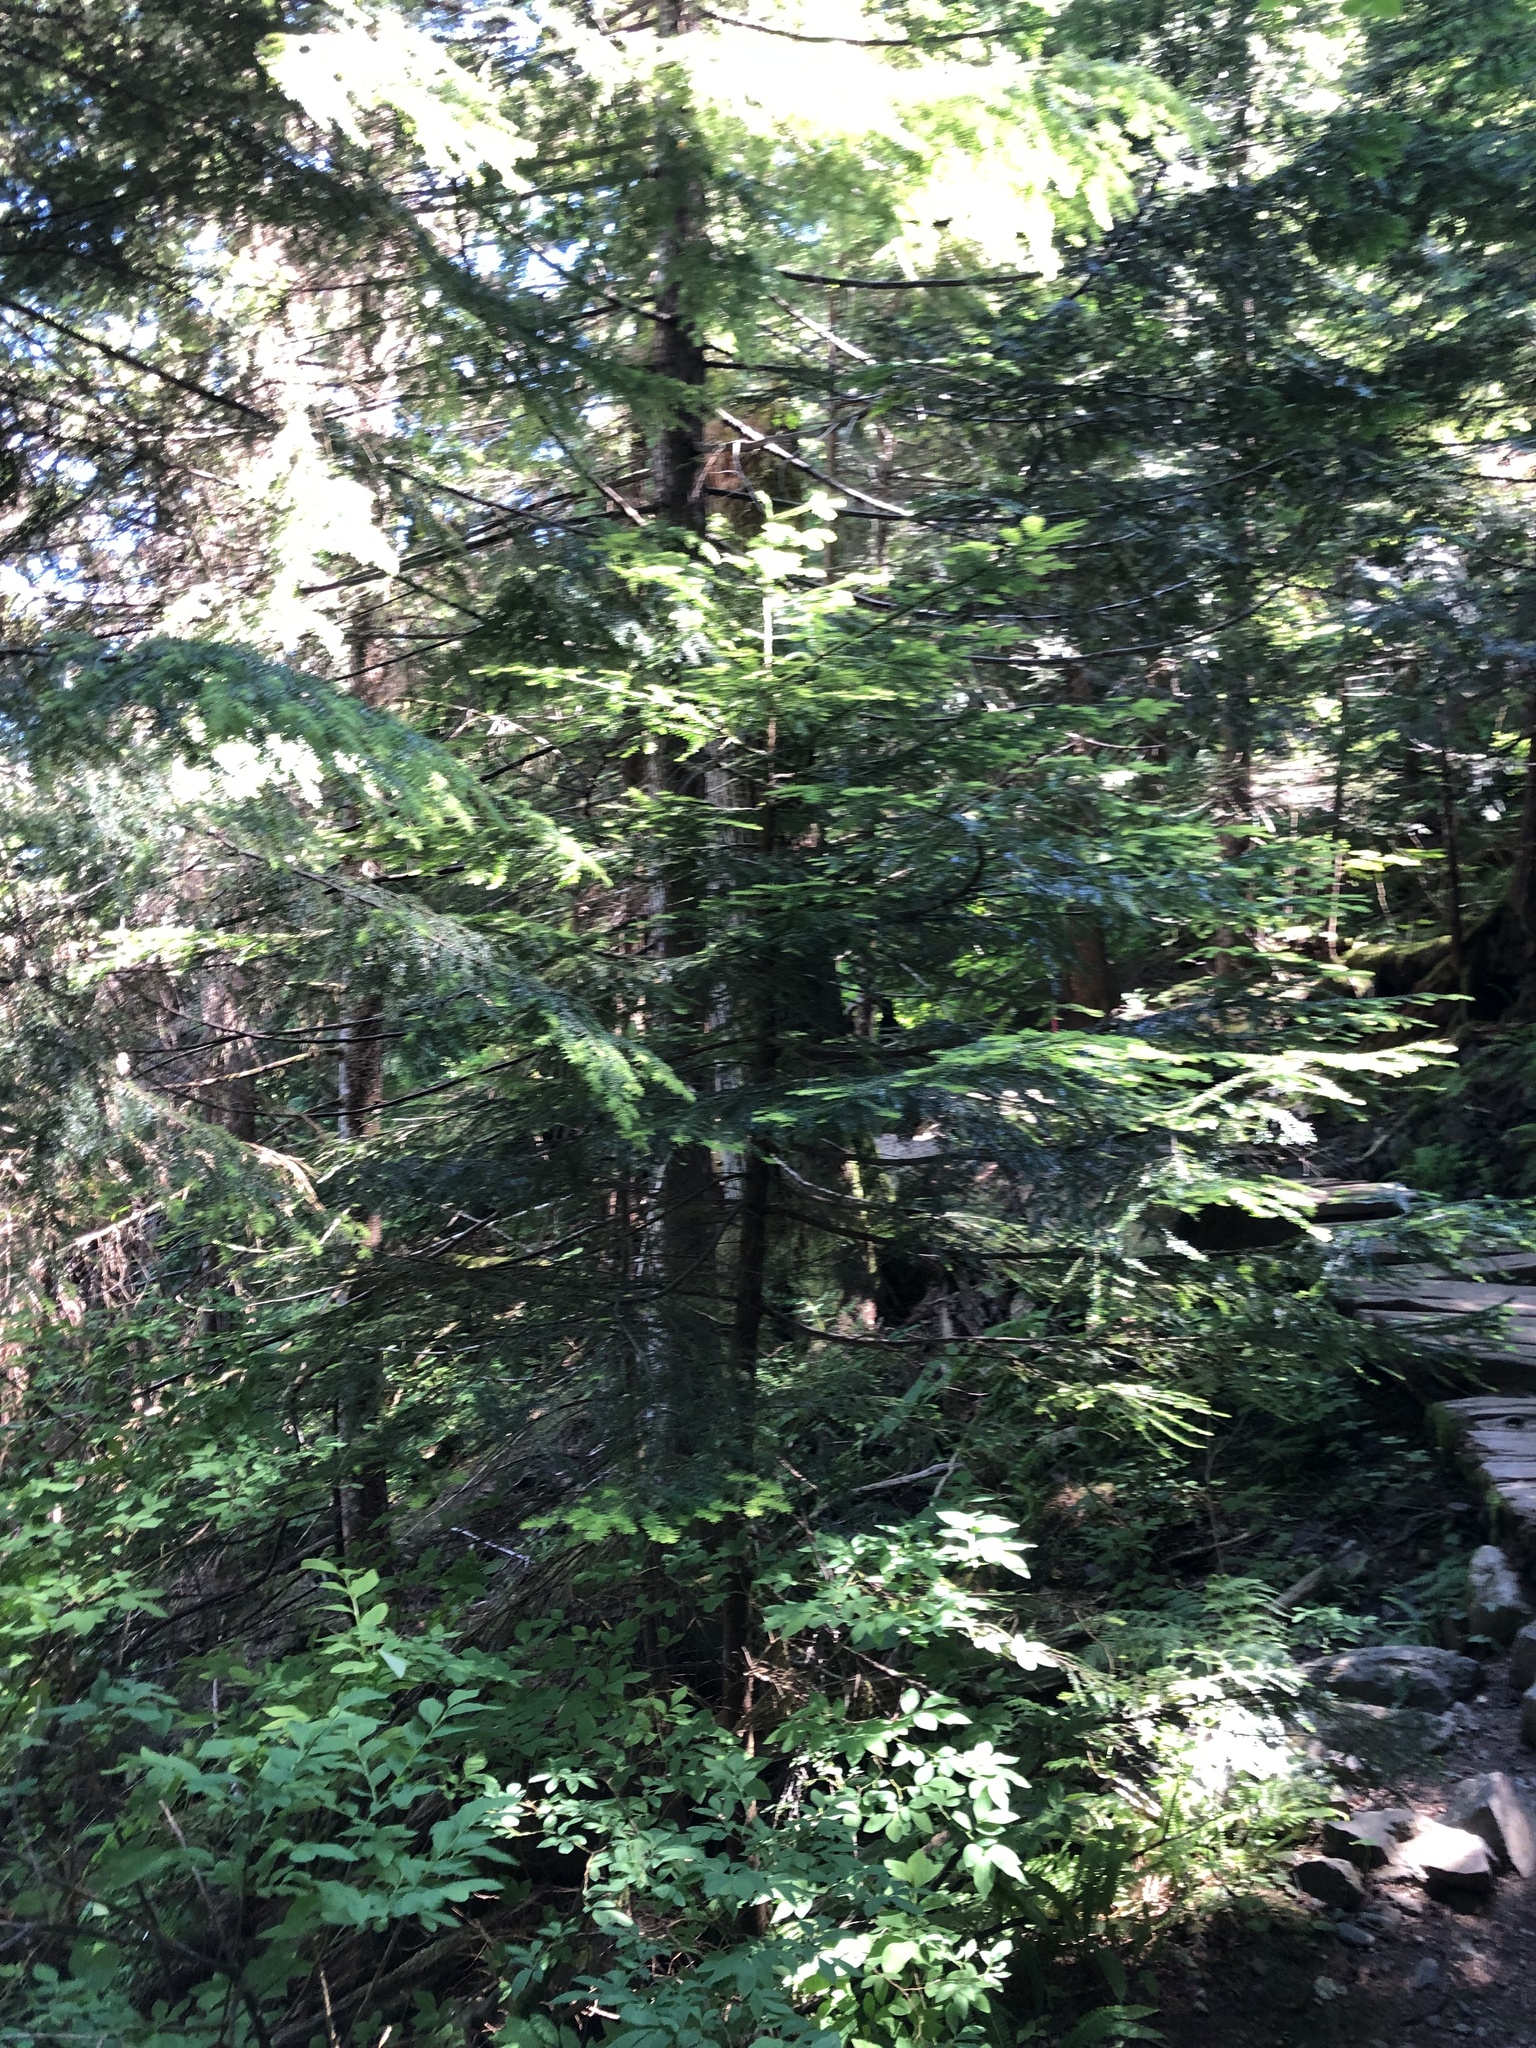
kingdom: Plantae
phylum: Tracheophyta
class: Pinopsida
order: Pinales
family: Pinaceae
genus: Abies
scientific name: Abies amabilis
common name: Pacific silver fir
